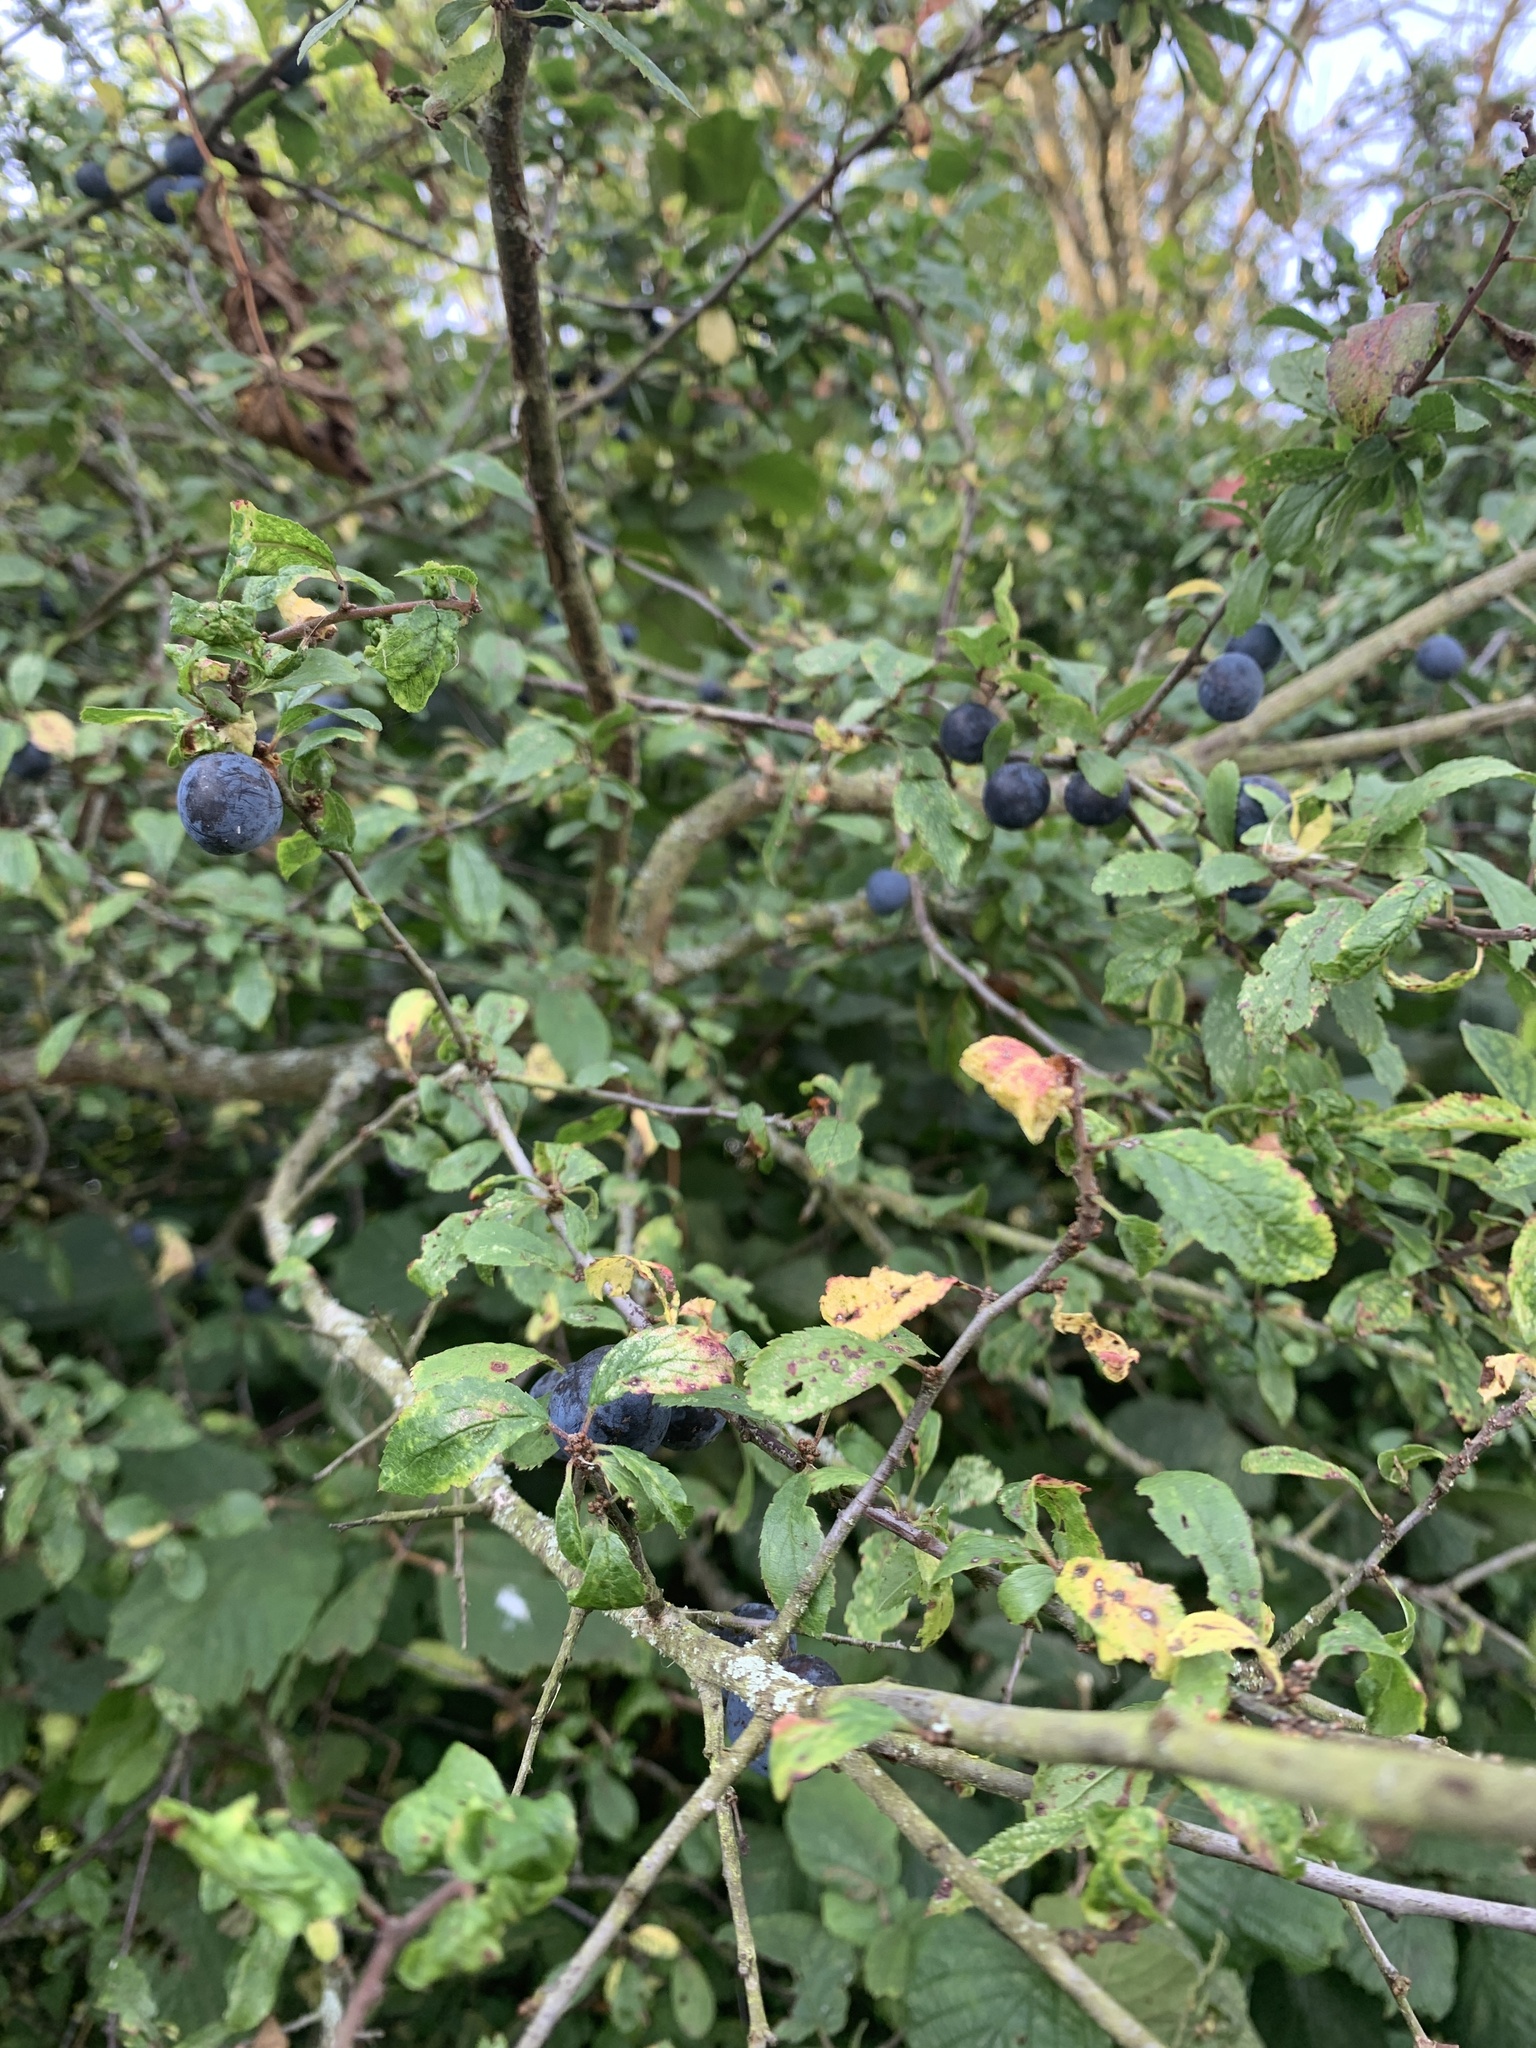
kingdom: Plantae
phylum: Tracheophyta
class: Magnoliopsida
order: Rosales
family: Rosaceae
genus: Prunus
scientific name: Prunus spinosa
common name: Blackthorn
